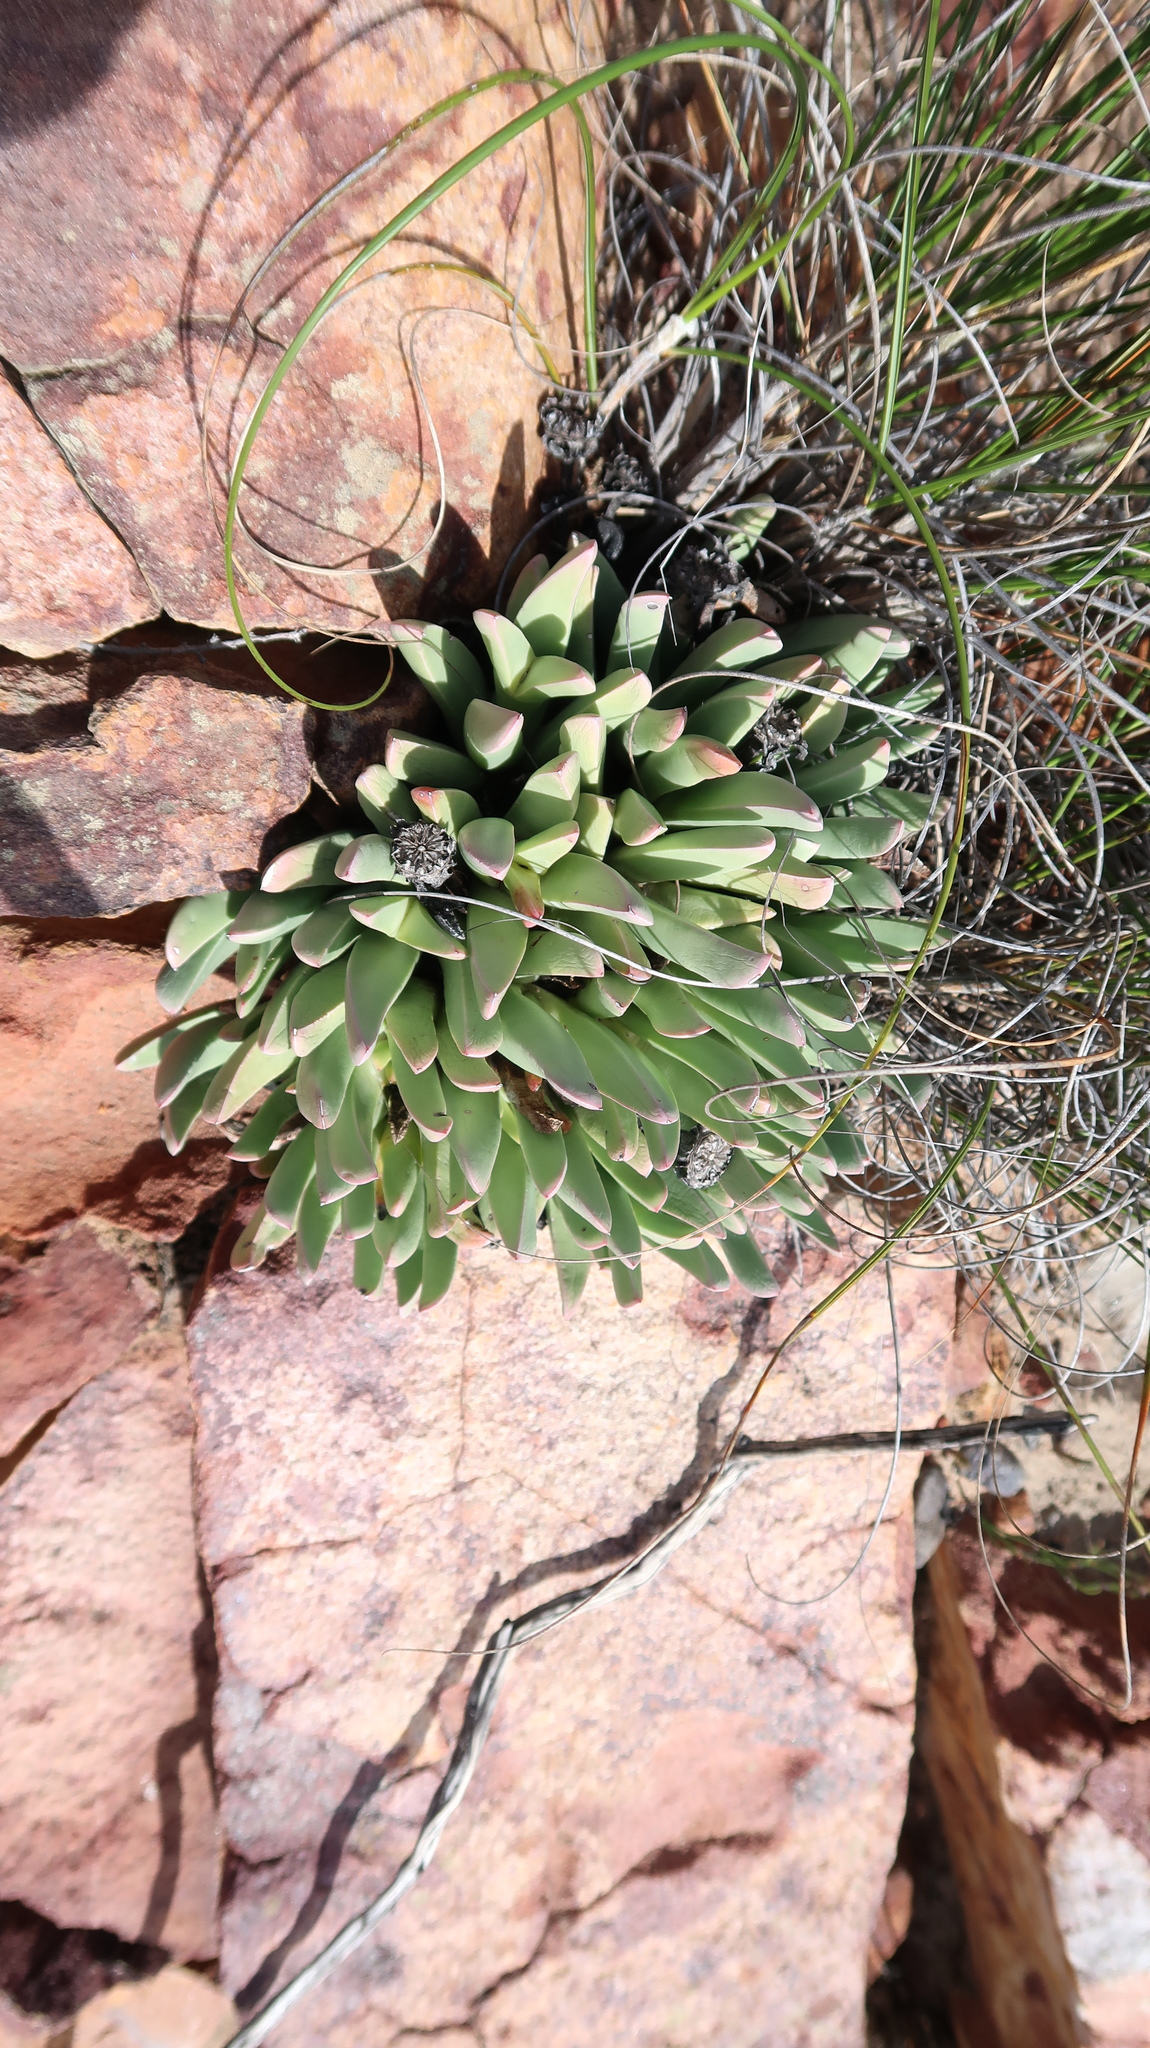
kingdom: Plantae
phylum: Tracheophyta
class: Magnoliopsida
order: Caryophyllales
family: Aizoaceae
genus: Machairophyllum
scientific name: Machairophyllum albidum
